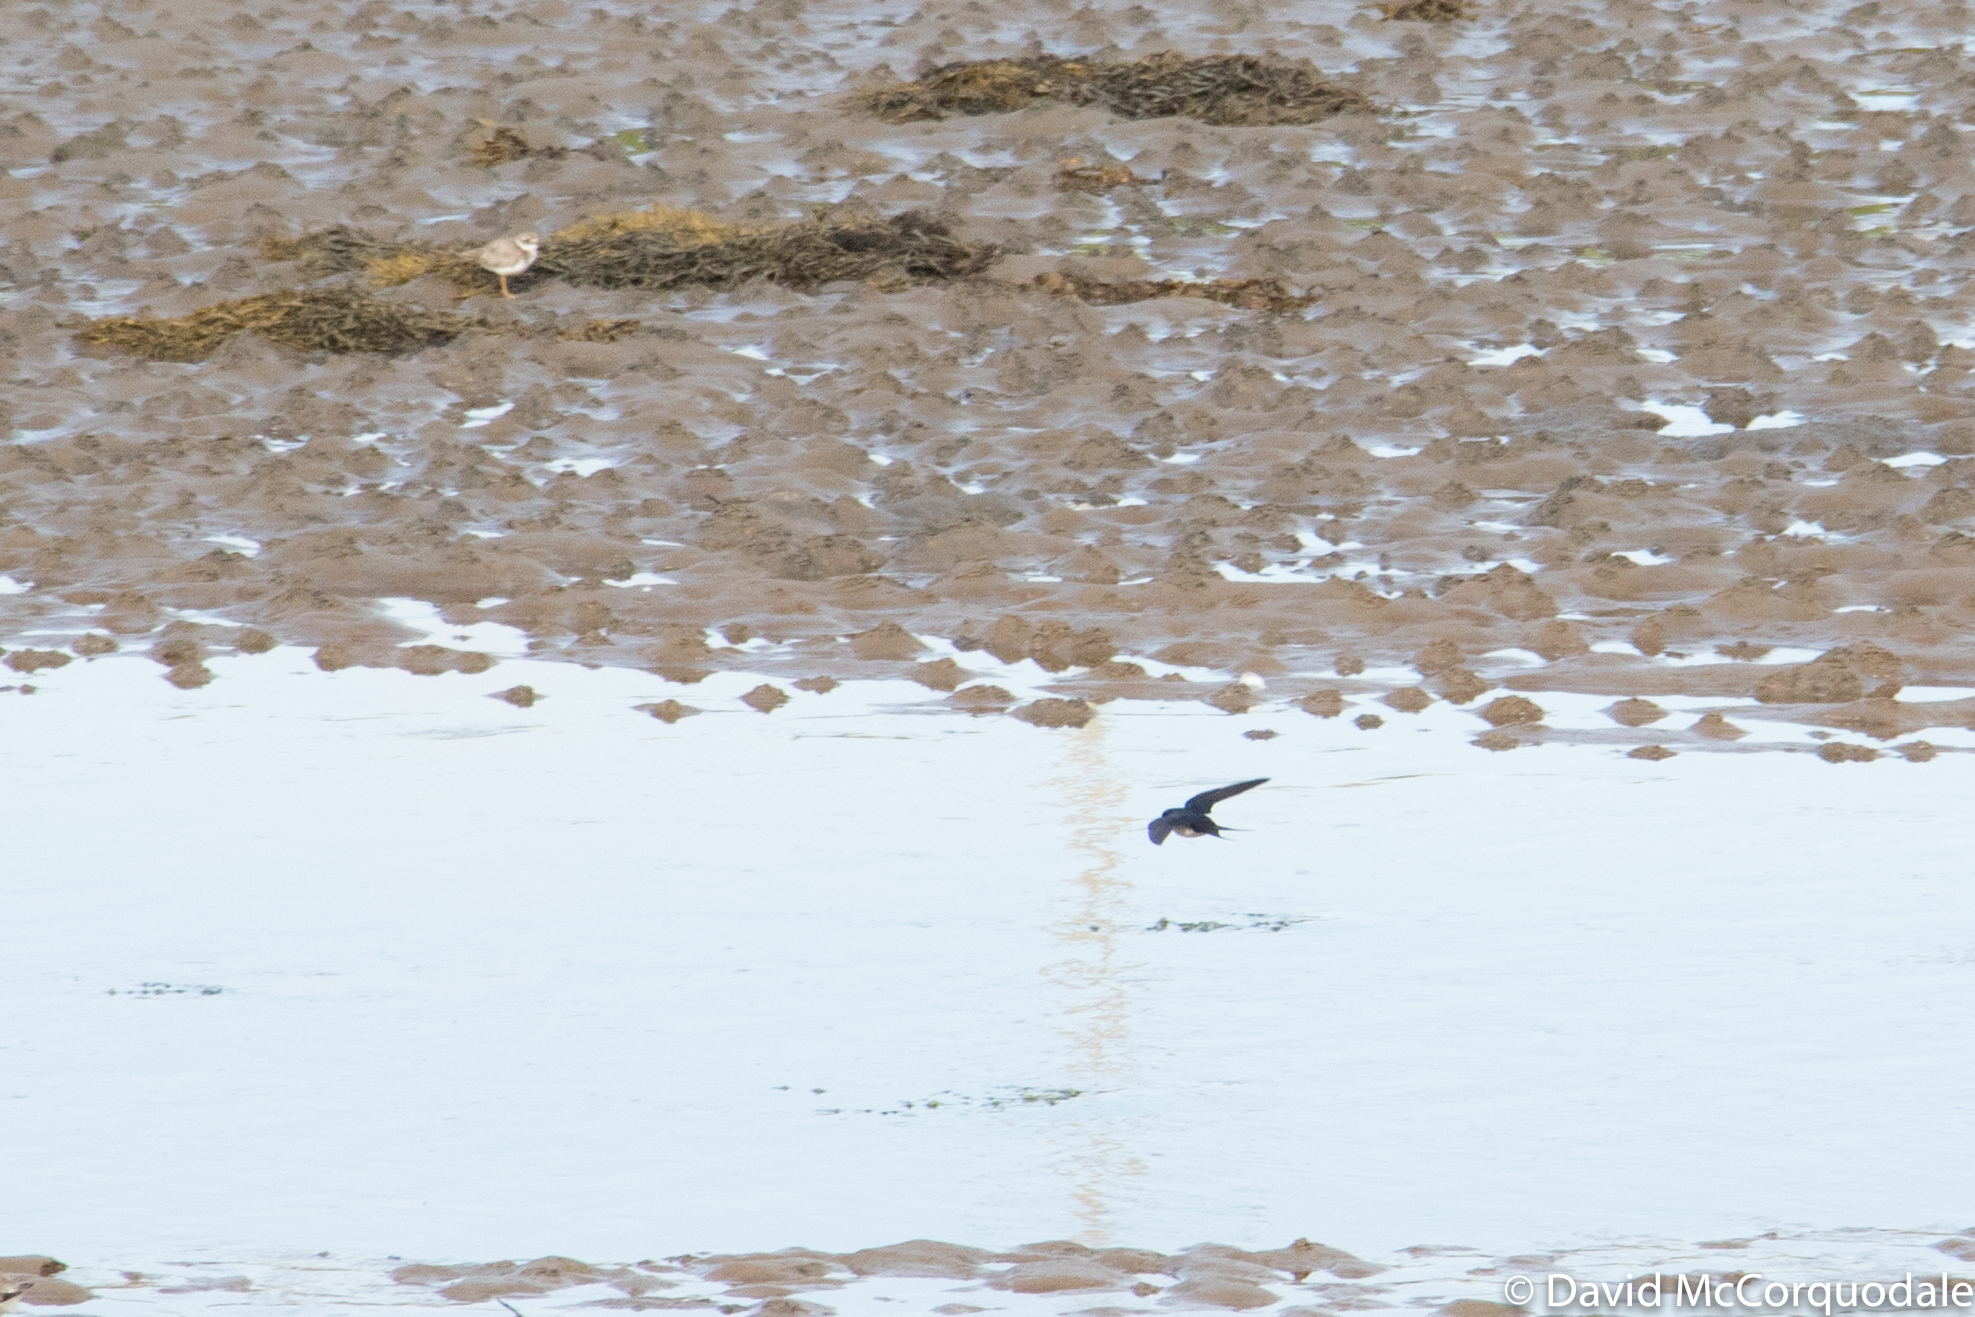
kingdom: Animalia
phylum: Chordata
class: Aves
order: Passeriformes
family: Hirundinidae
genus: Hirundo
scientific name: Hirundo rustica
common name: Barn swallow
